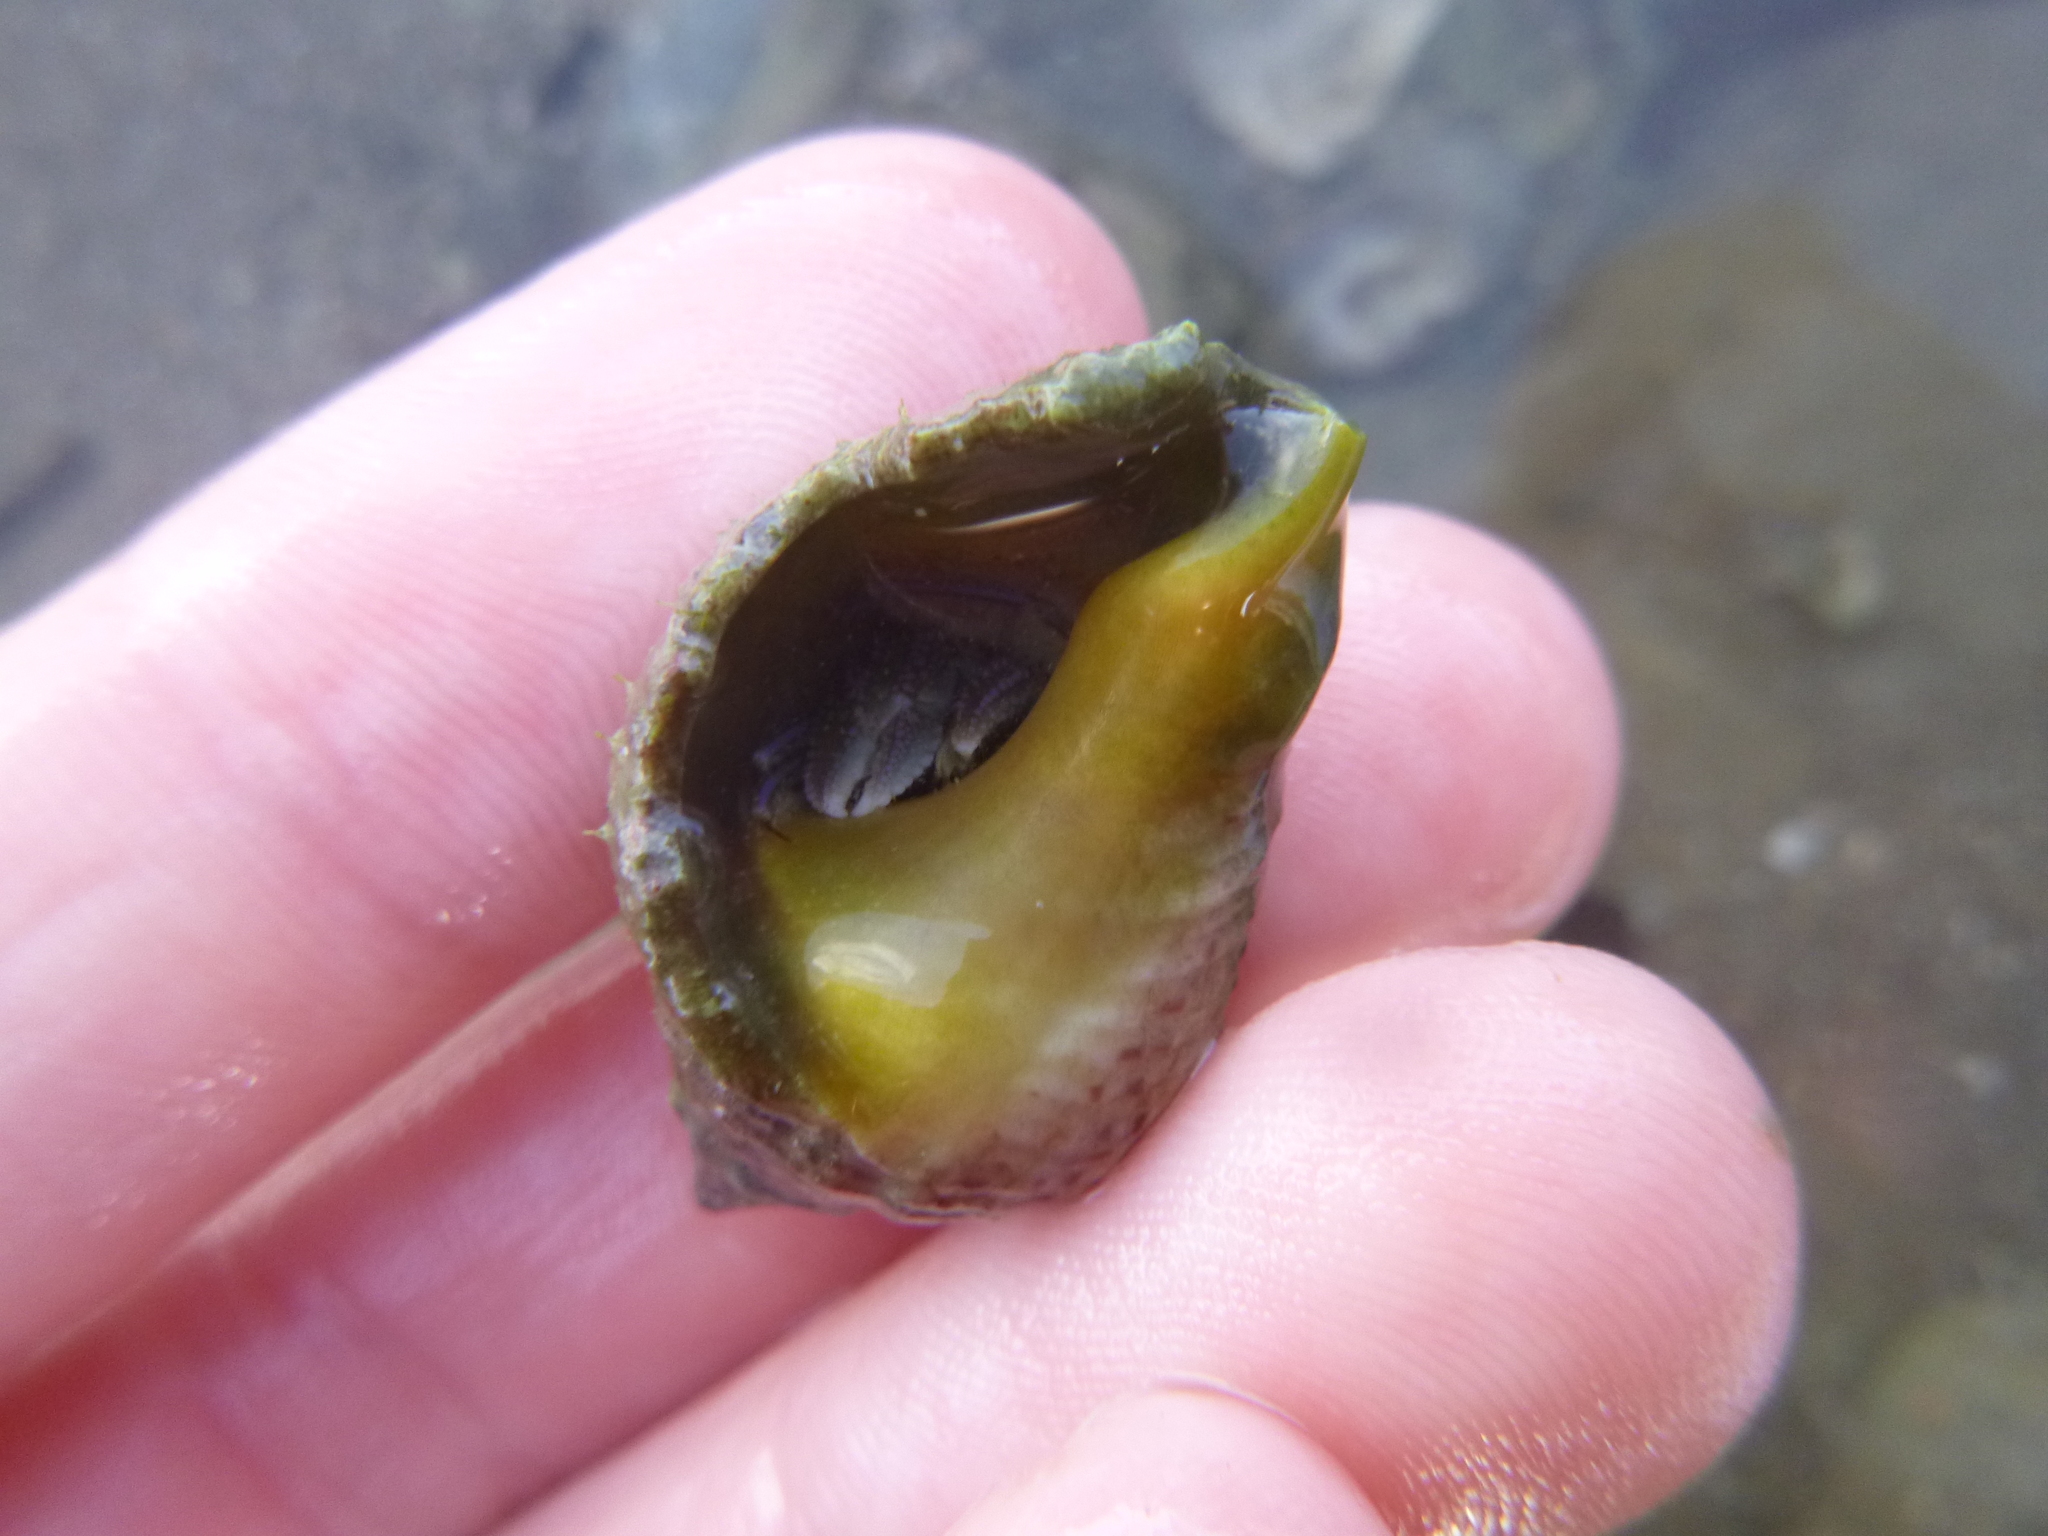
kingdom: Animalia
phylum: Arthropoda
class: Malacostraca
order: Decapoda
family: Paguridae
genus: Pagurus
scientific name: Pagurus novizealandiae
